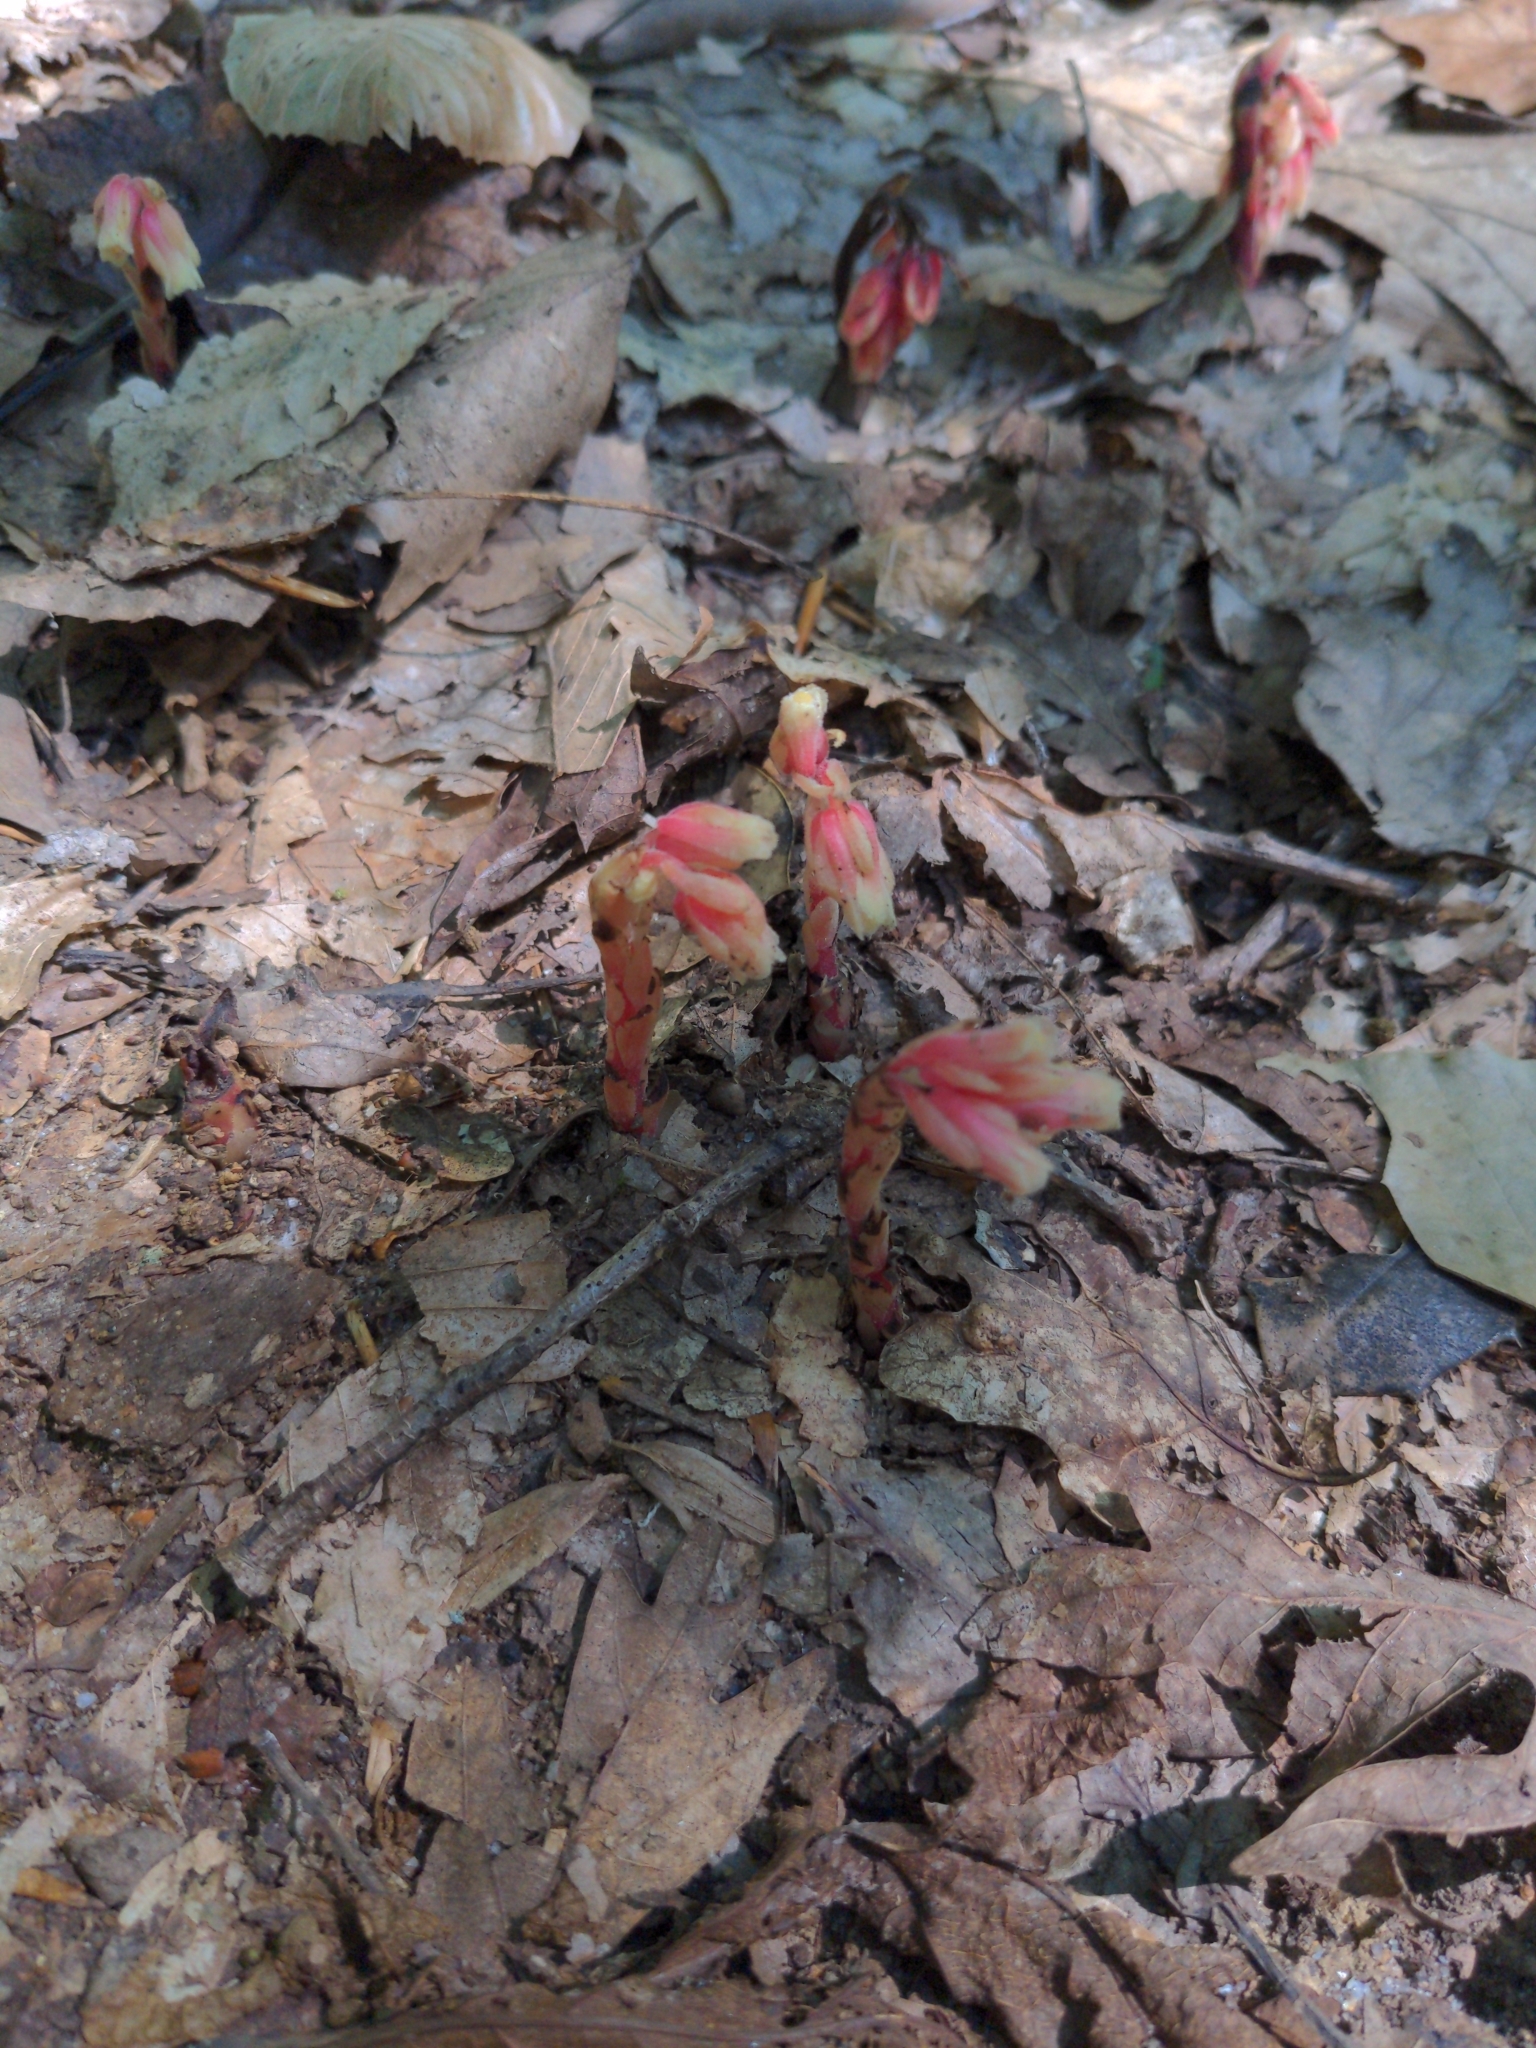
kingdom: Plantae
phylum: Tracheophyta
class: Magnoliopsida
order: Ericales
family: Ericaceae
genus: Hypopitys
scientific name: Hypopitys monotropa
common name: Yellow bird's-nest
